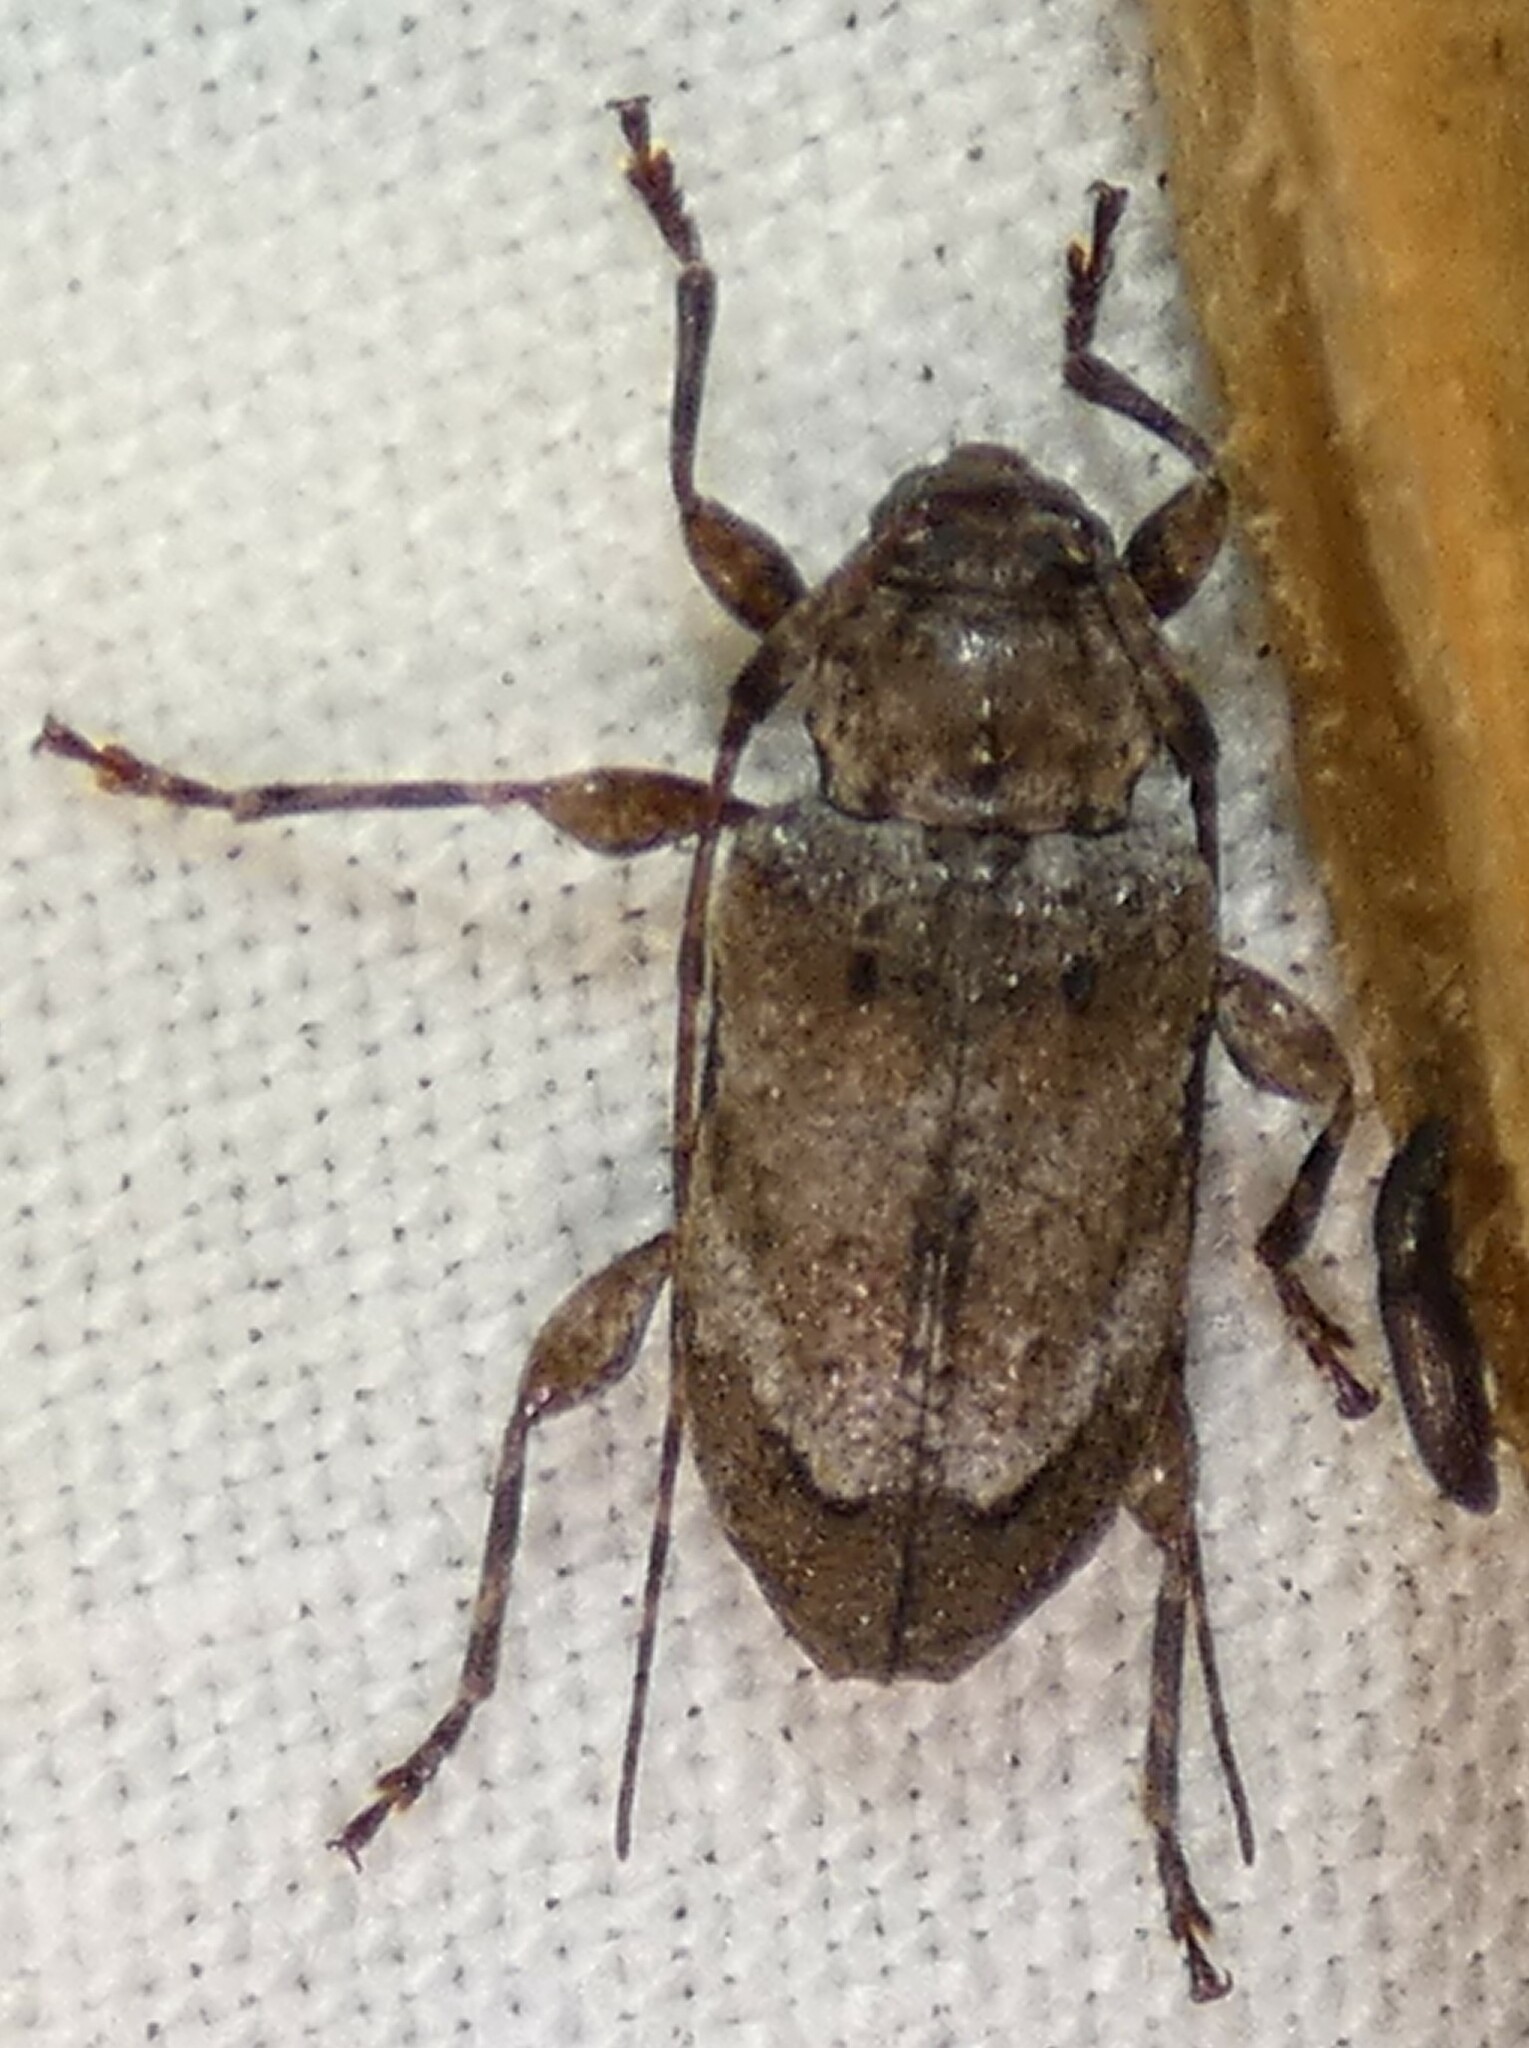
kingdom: Animalia
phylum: Arthropoda
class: Insecta
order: Coleoptera
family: Cerambycidae
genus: Astylopsis
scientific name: Astylopsis arcuata
